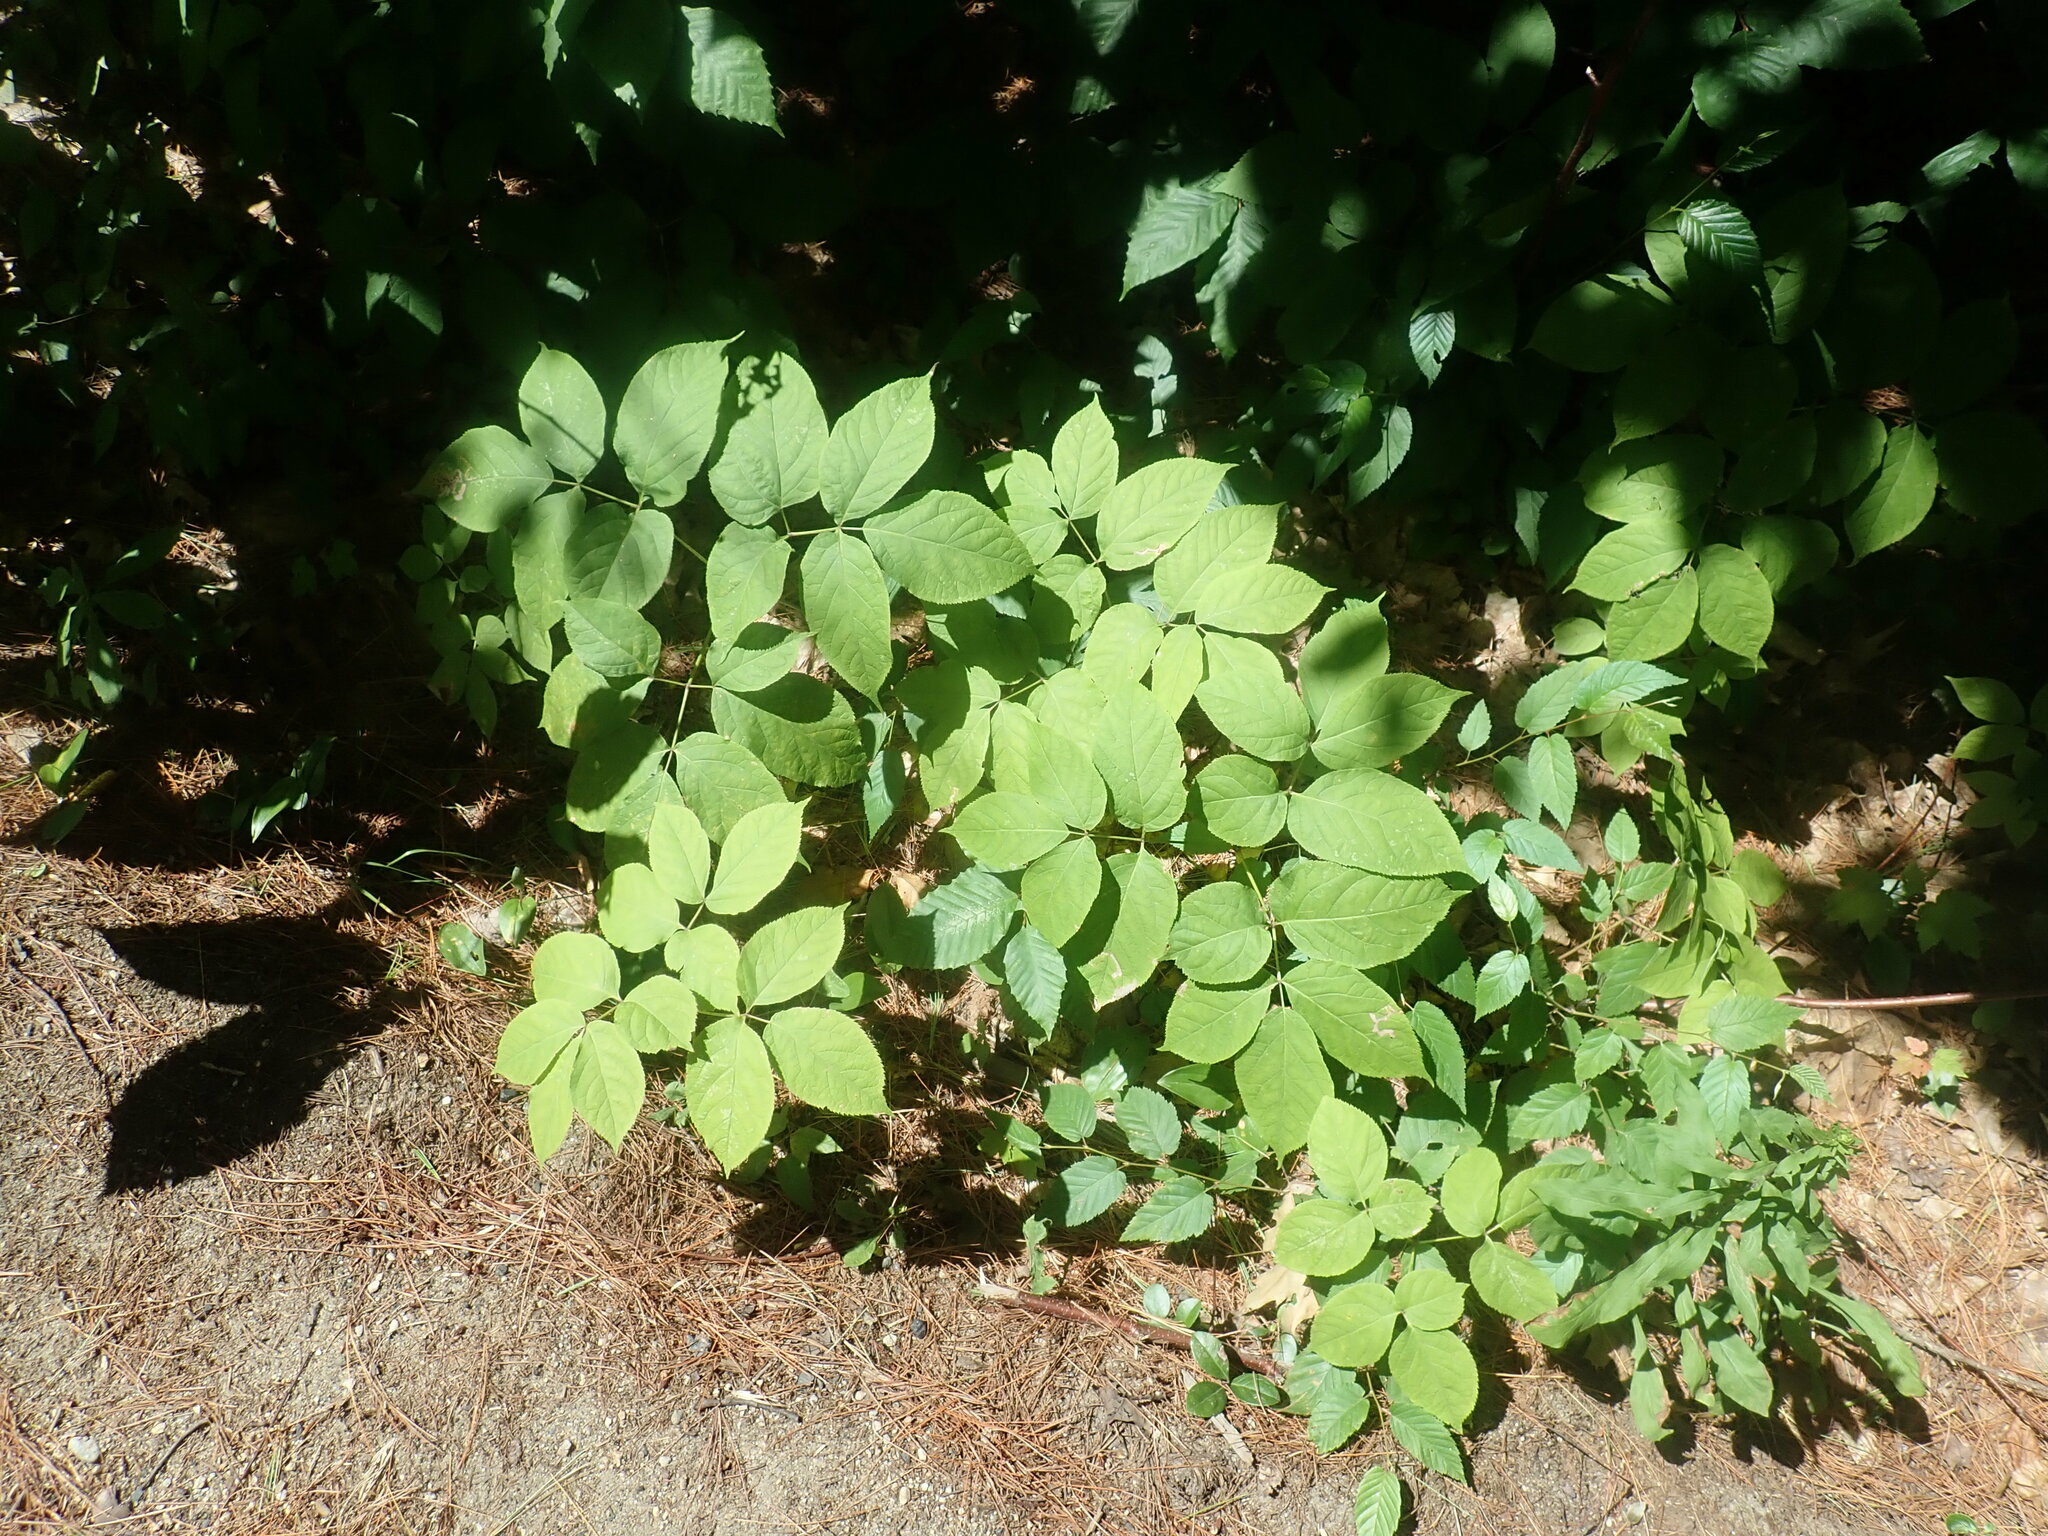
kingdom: Plantae
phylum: Tracheophyta
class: Magnoliopsida
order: Apiales
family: Araliaceae
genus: Aralia
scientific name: Aralia nudicaulis
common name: Wild sarsaparilla
